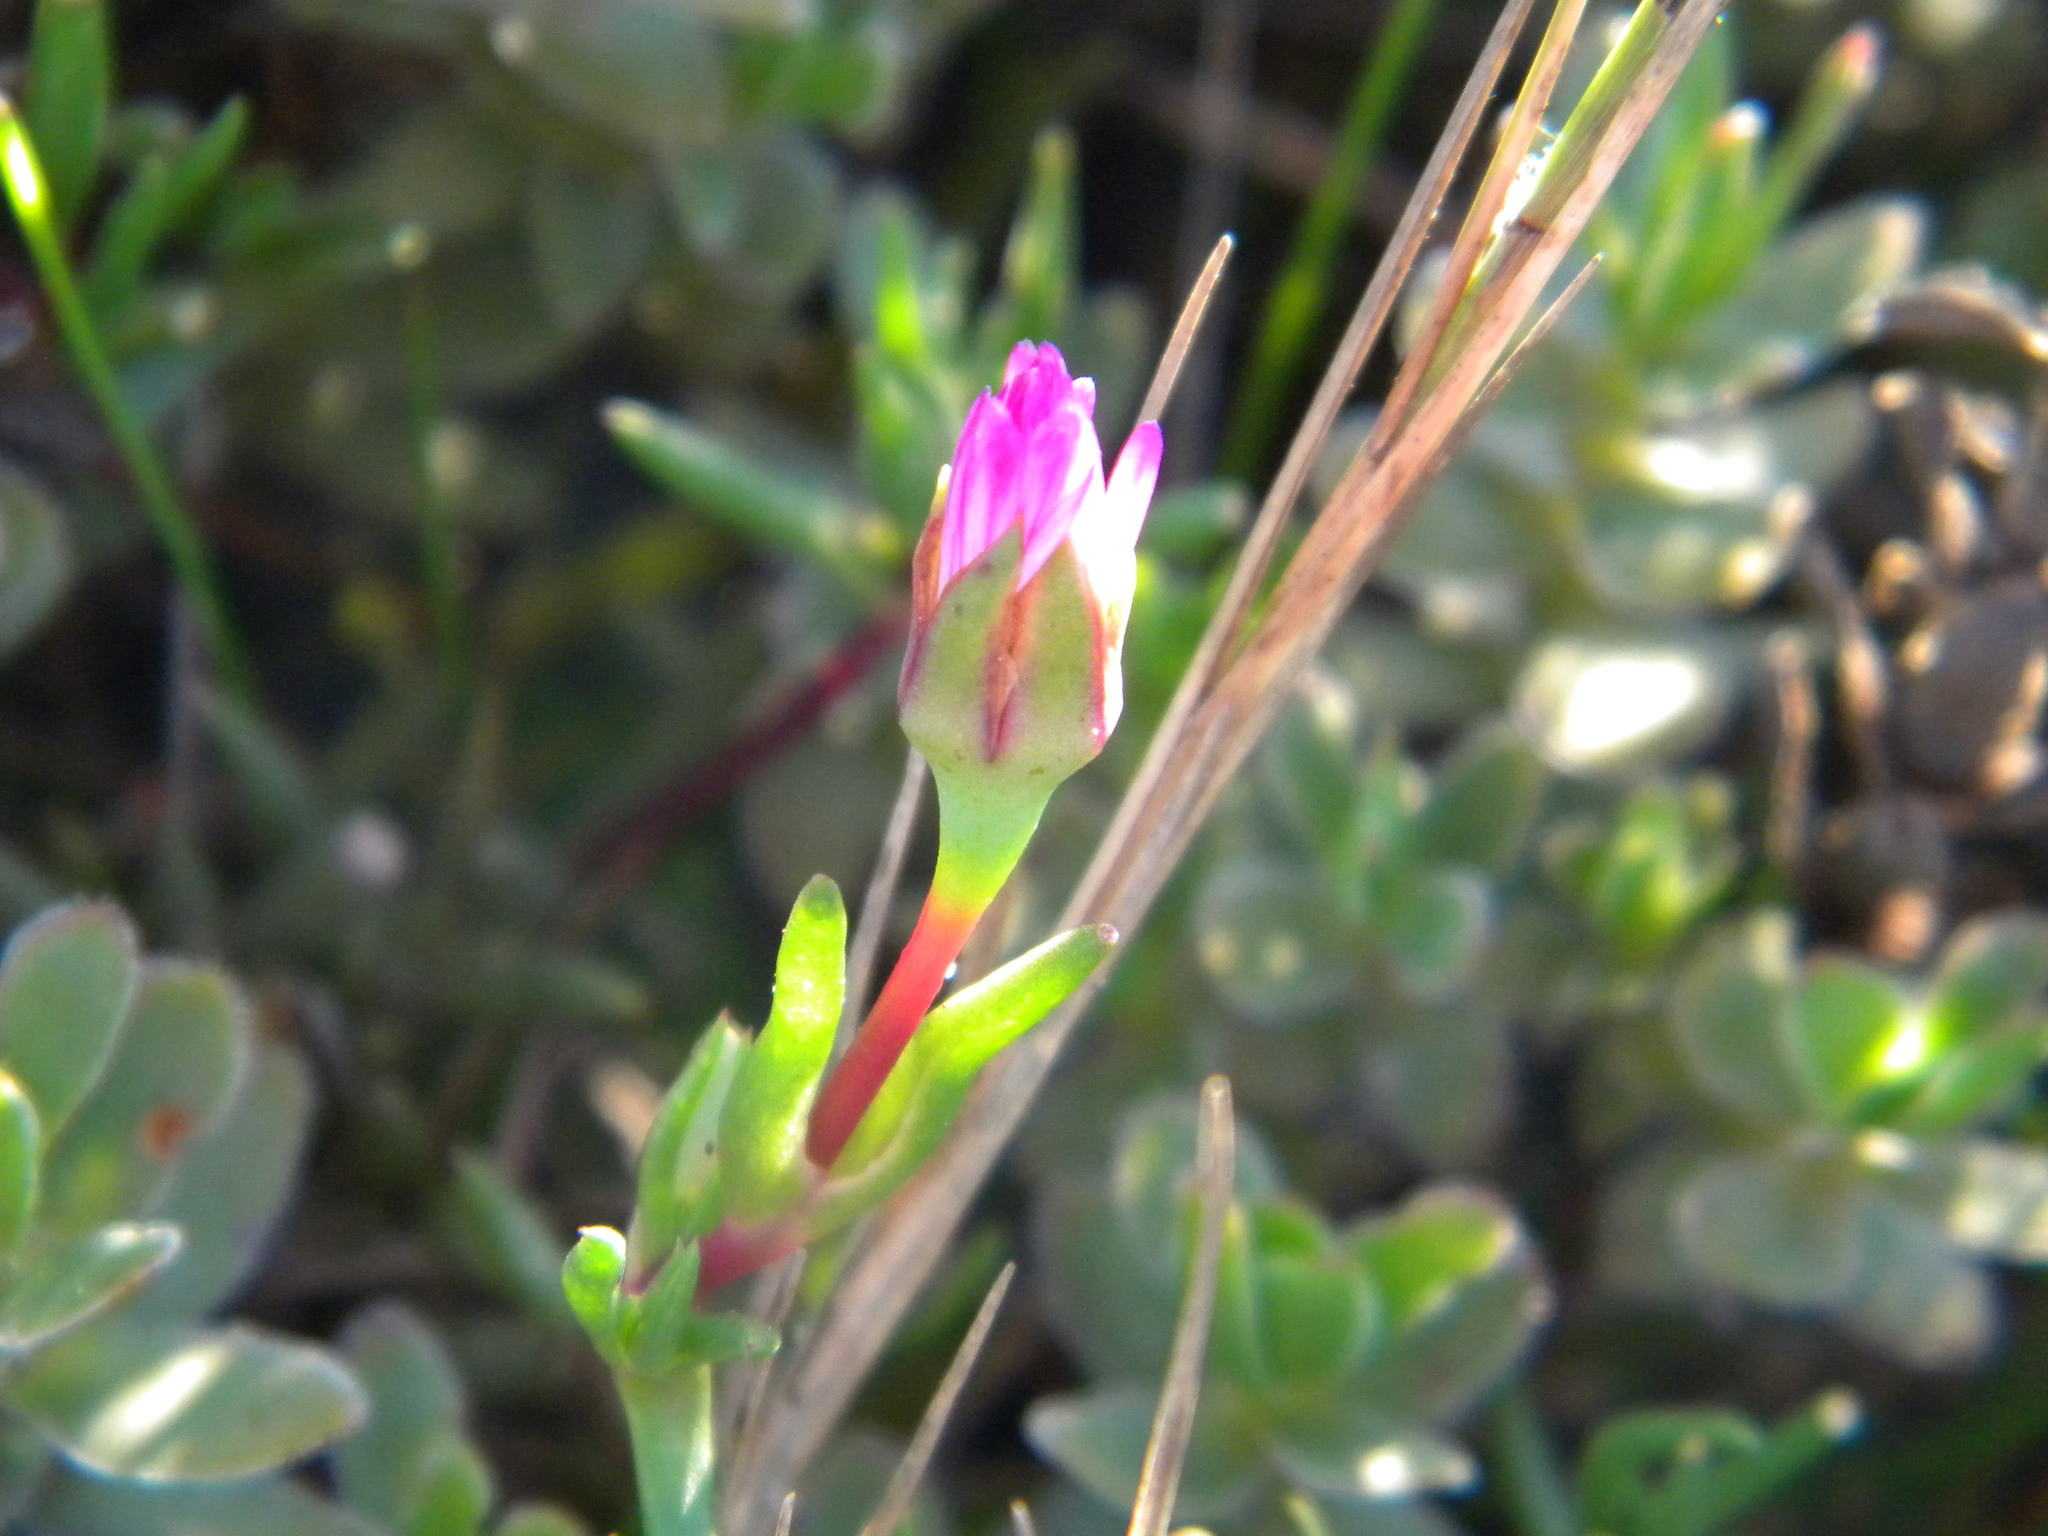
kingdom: Plantae
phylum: Tracheophyta
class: Magnoliopsida
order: Caryophyllales
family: Aizoaceae
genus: Lampranthus
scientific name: Lampranthus filicaulis
